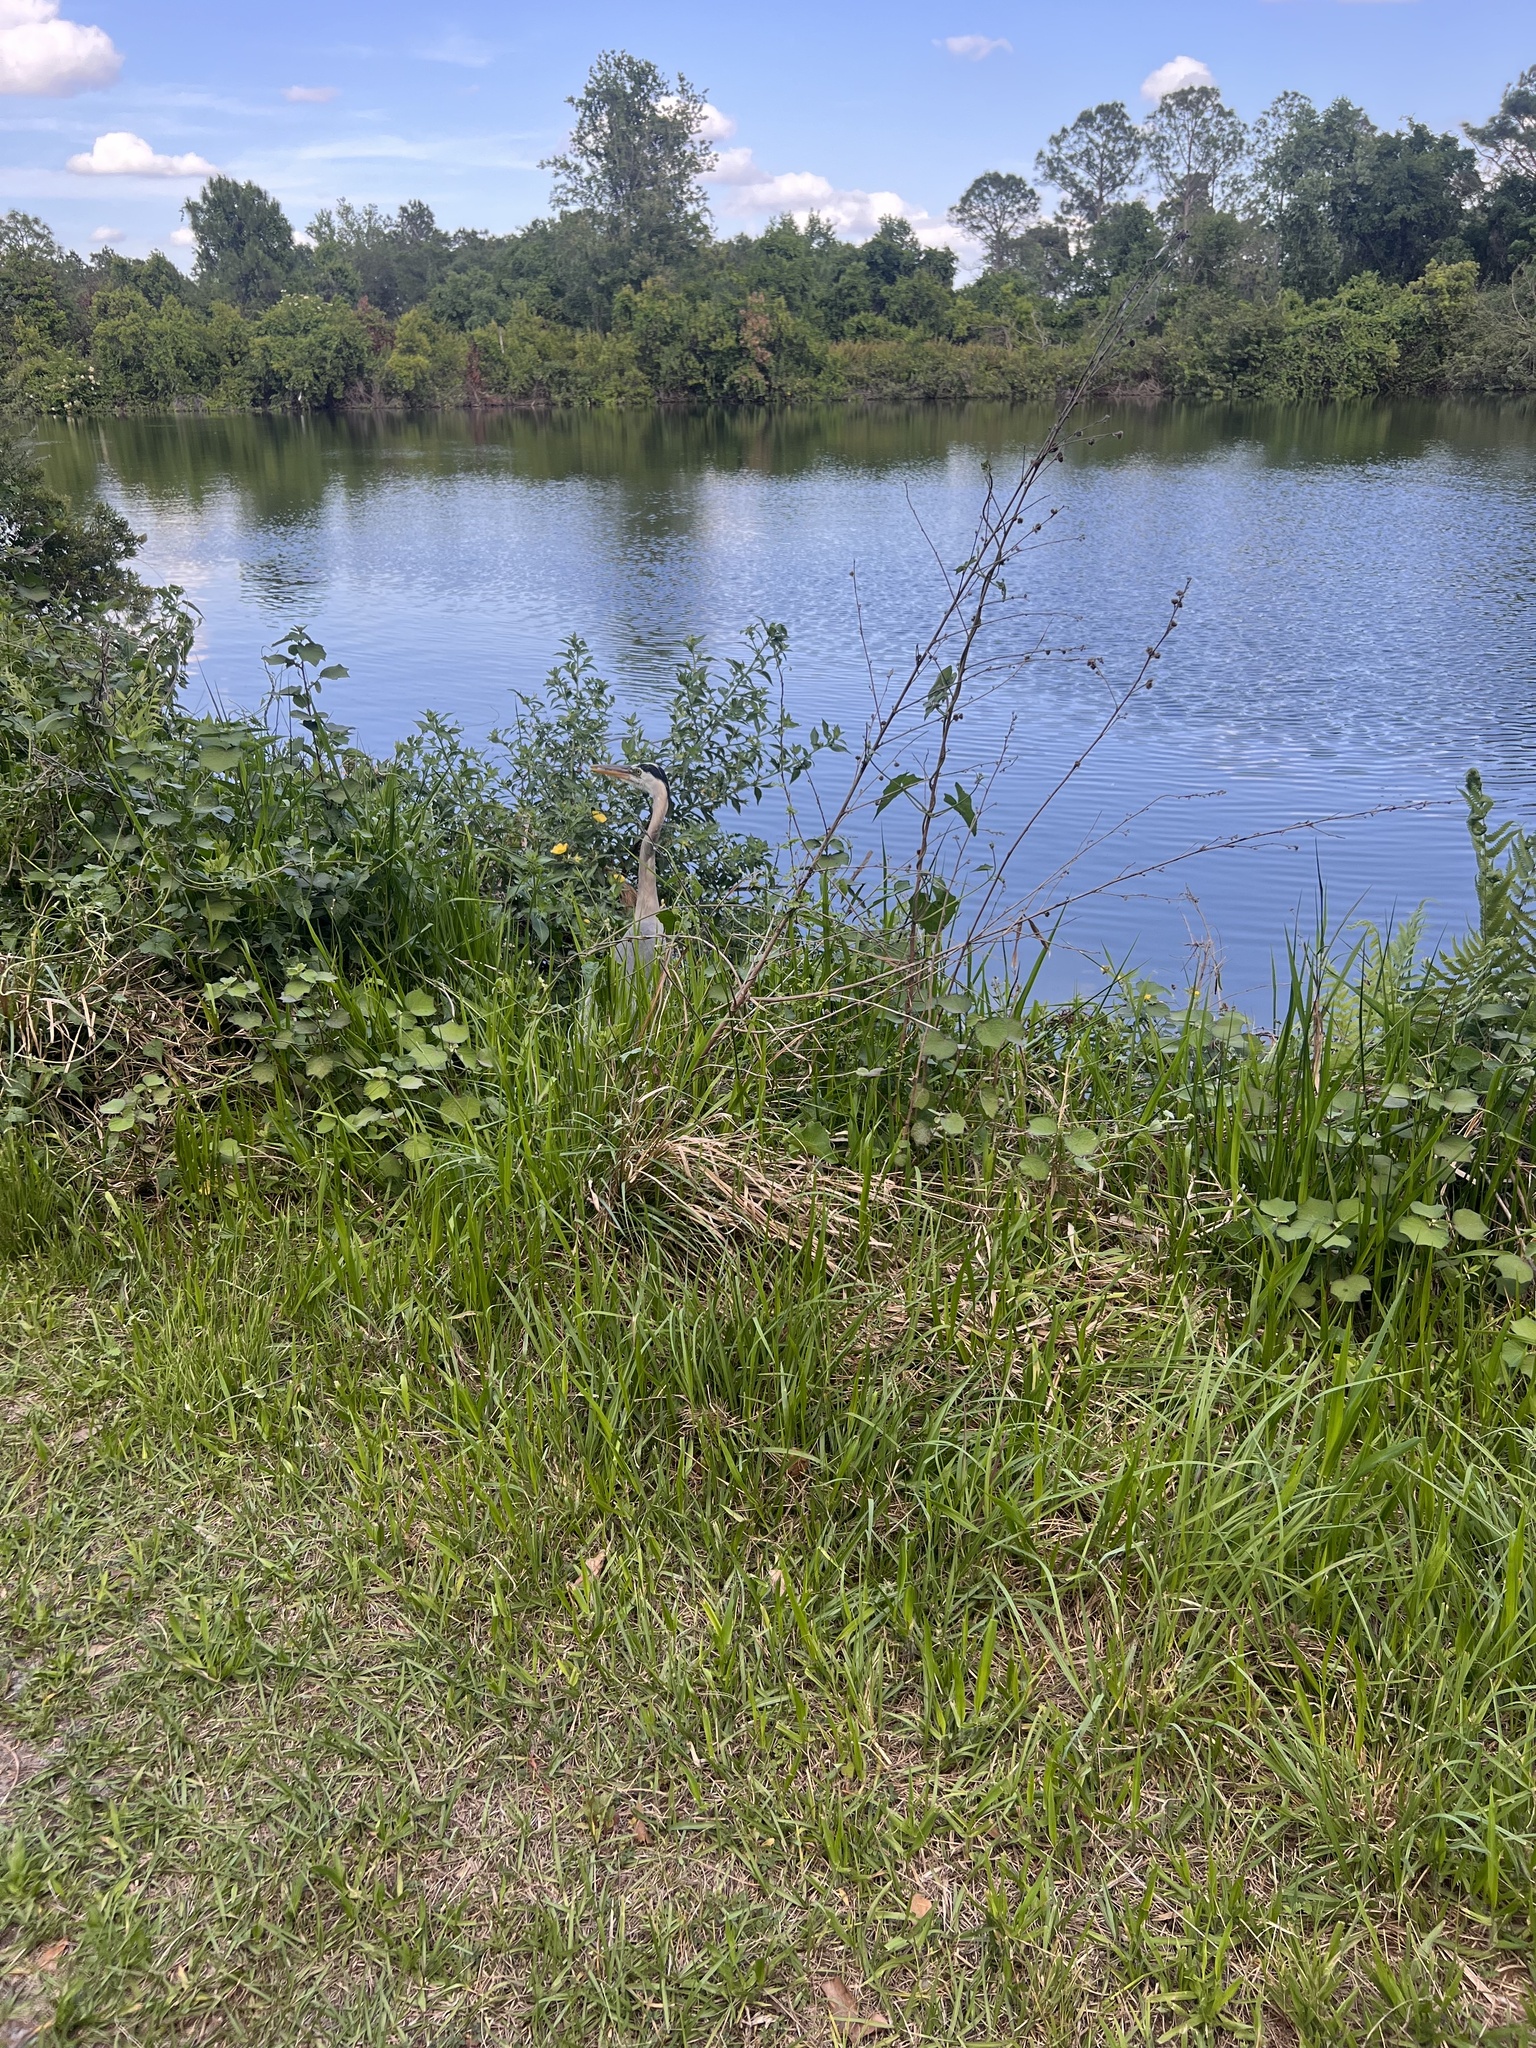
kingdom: Animalia
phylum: Chordata
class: Aves
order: Pelecaniformes
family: Ardeidae
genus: Ardea
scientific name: Ardea herodias
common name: Great blue heron
